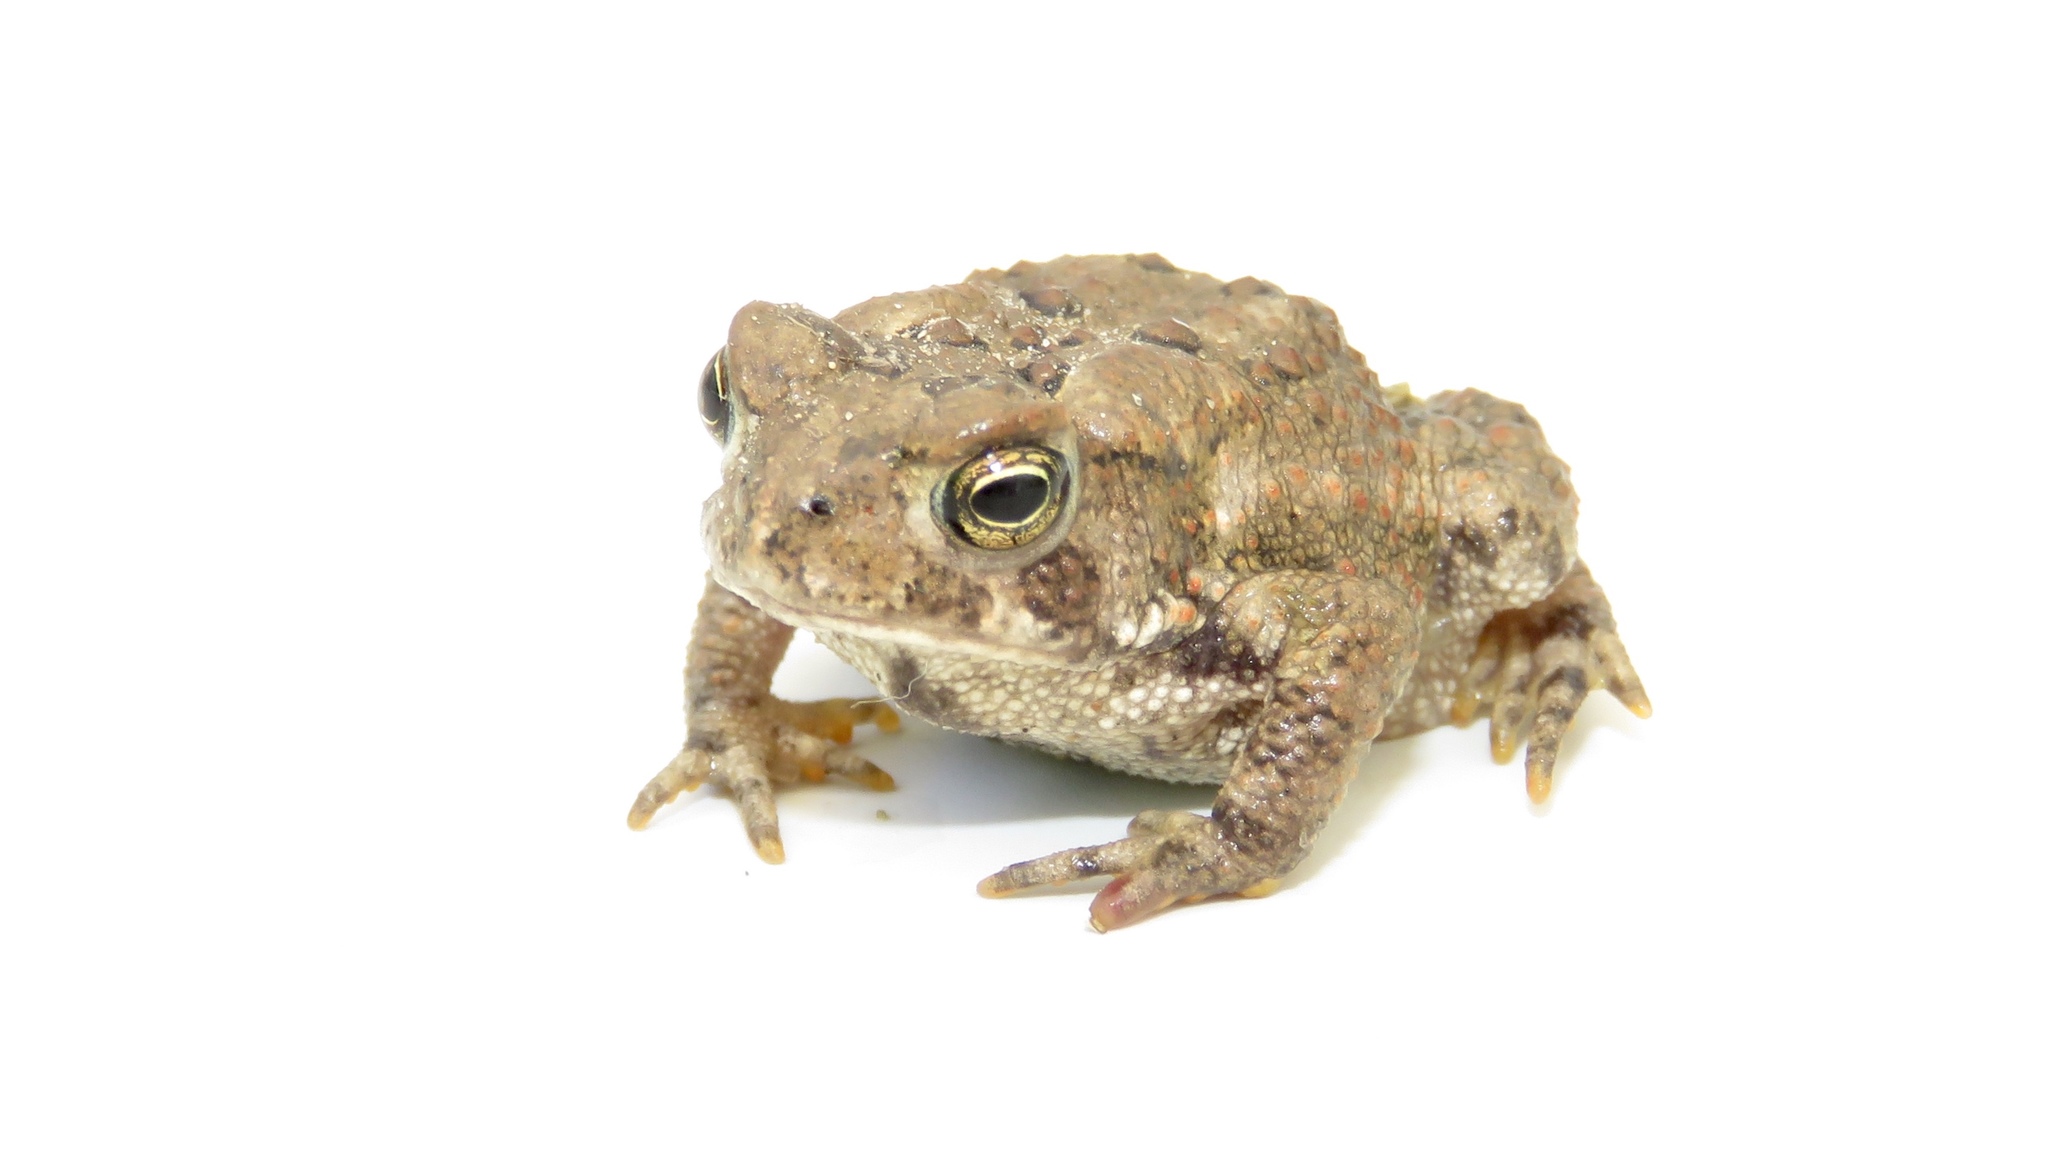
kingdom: Animalia
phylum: Chordata
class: Amphibia
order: Anura
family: Bufonidae
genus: Anaxyrus
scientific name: Anaxyrus americanus
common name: American toad
